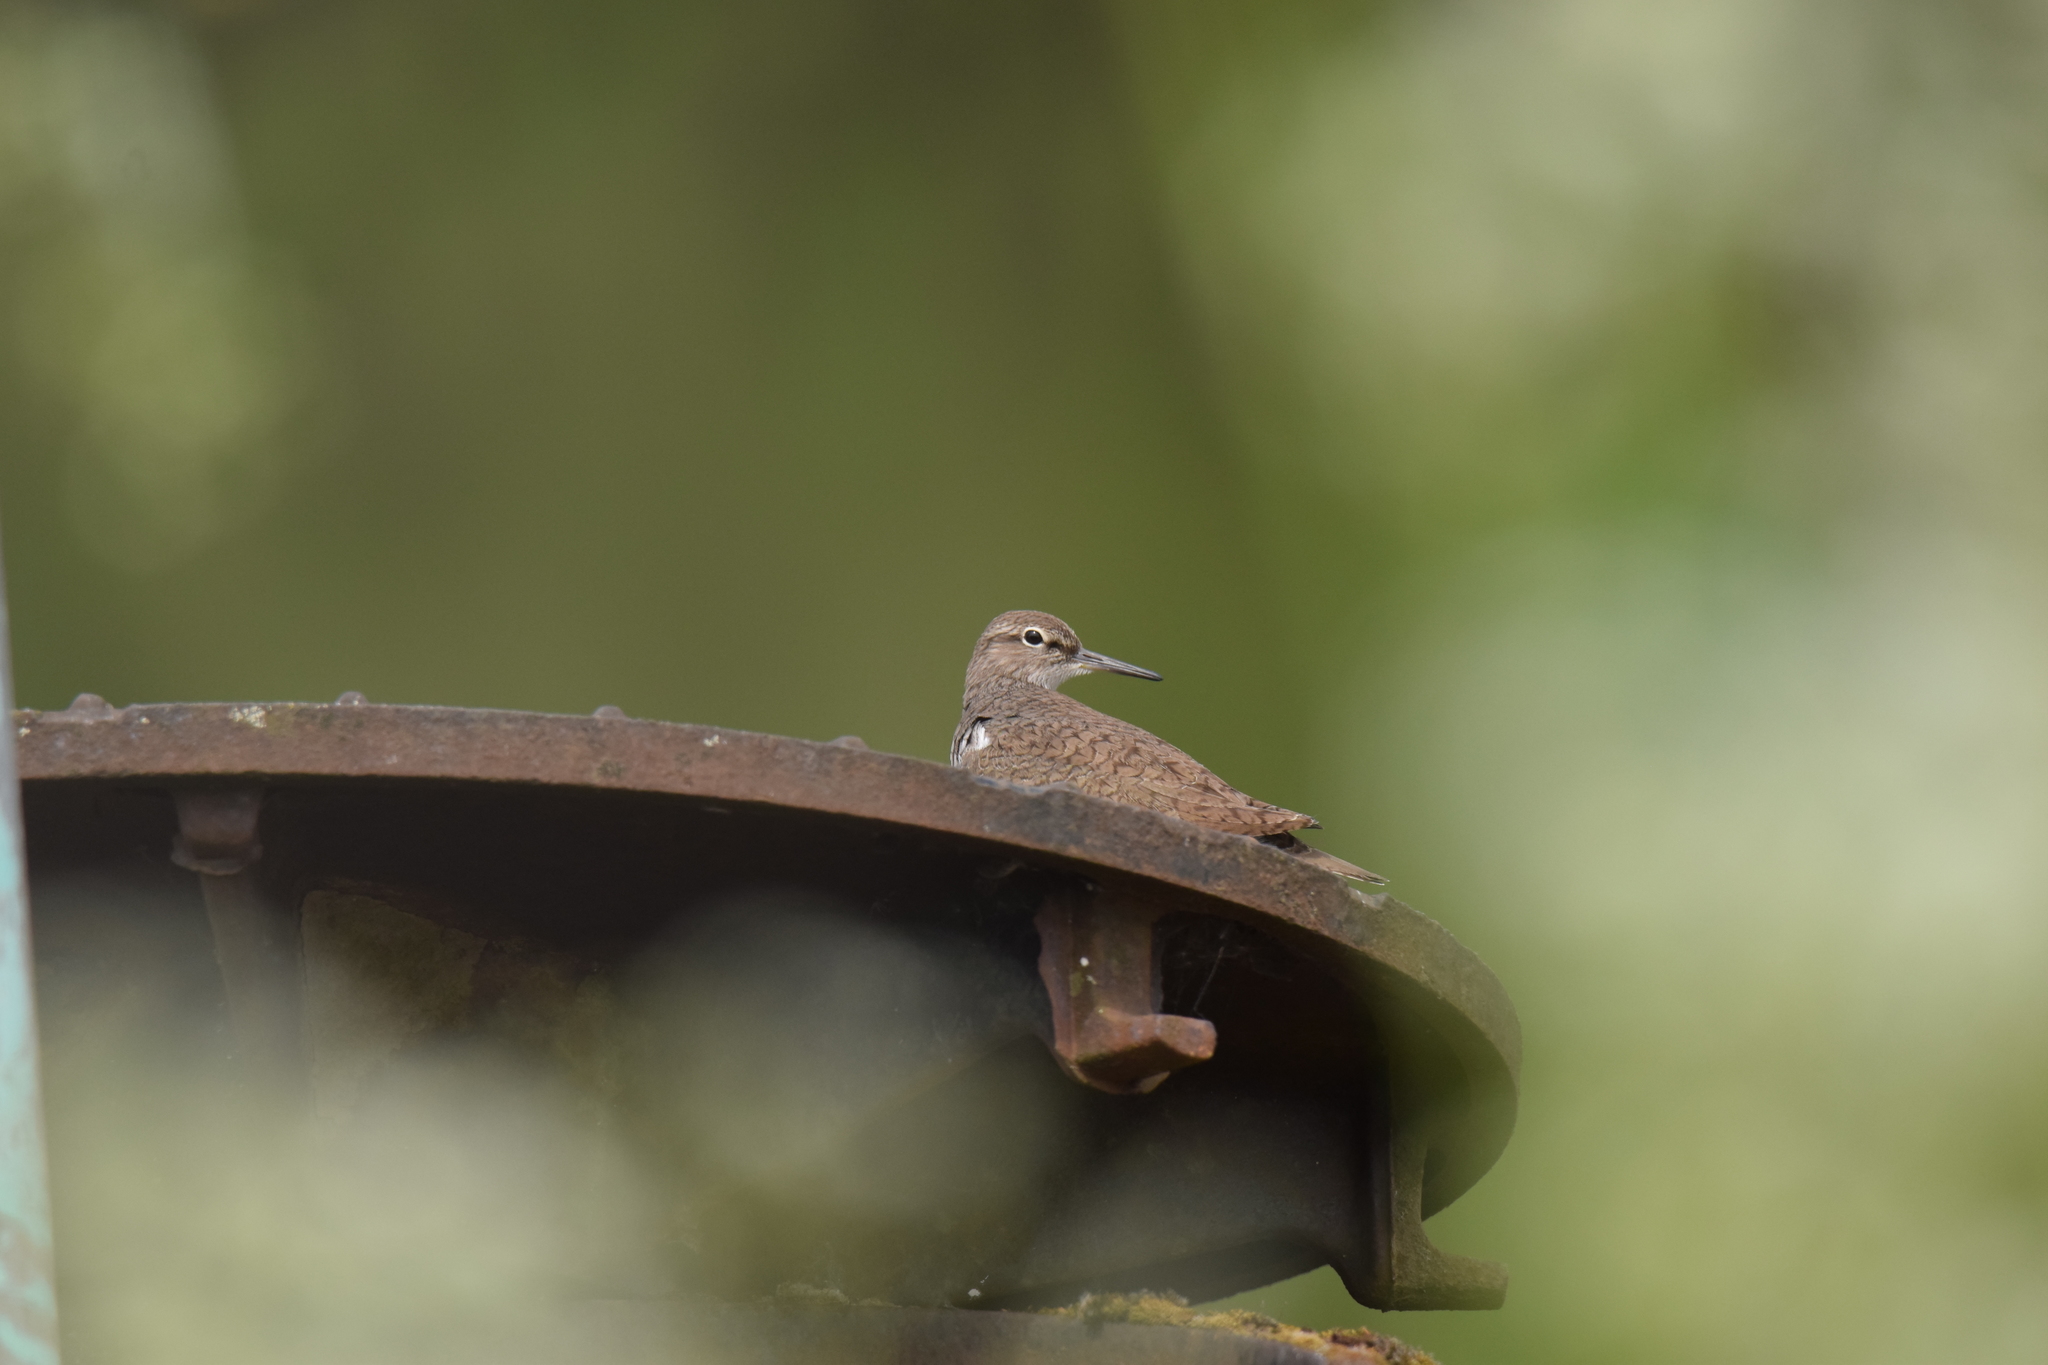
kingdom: Animalia
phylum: Chordata
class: Aves
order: Charadriiformes
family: Scolopacidae
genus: Actitis
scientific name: Actitis hypoleucos
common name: Common sandpiper
